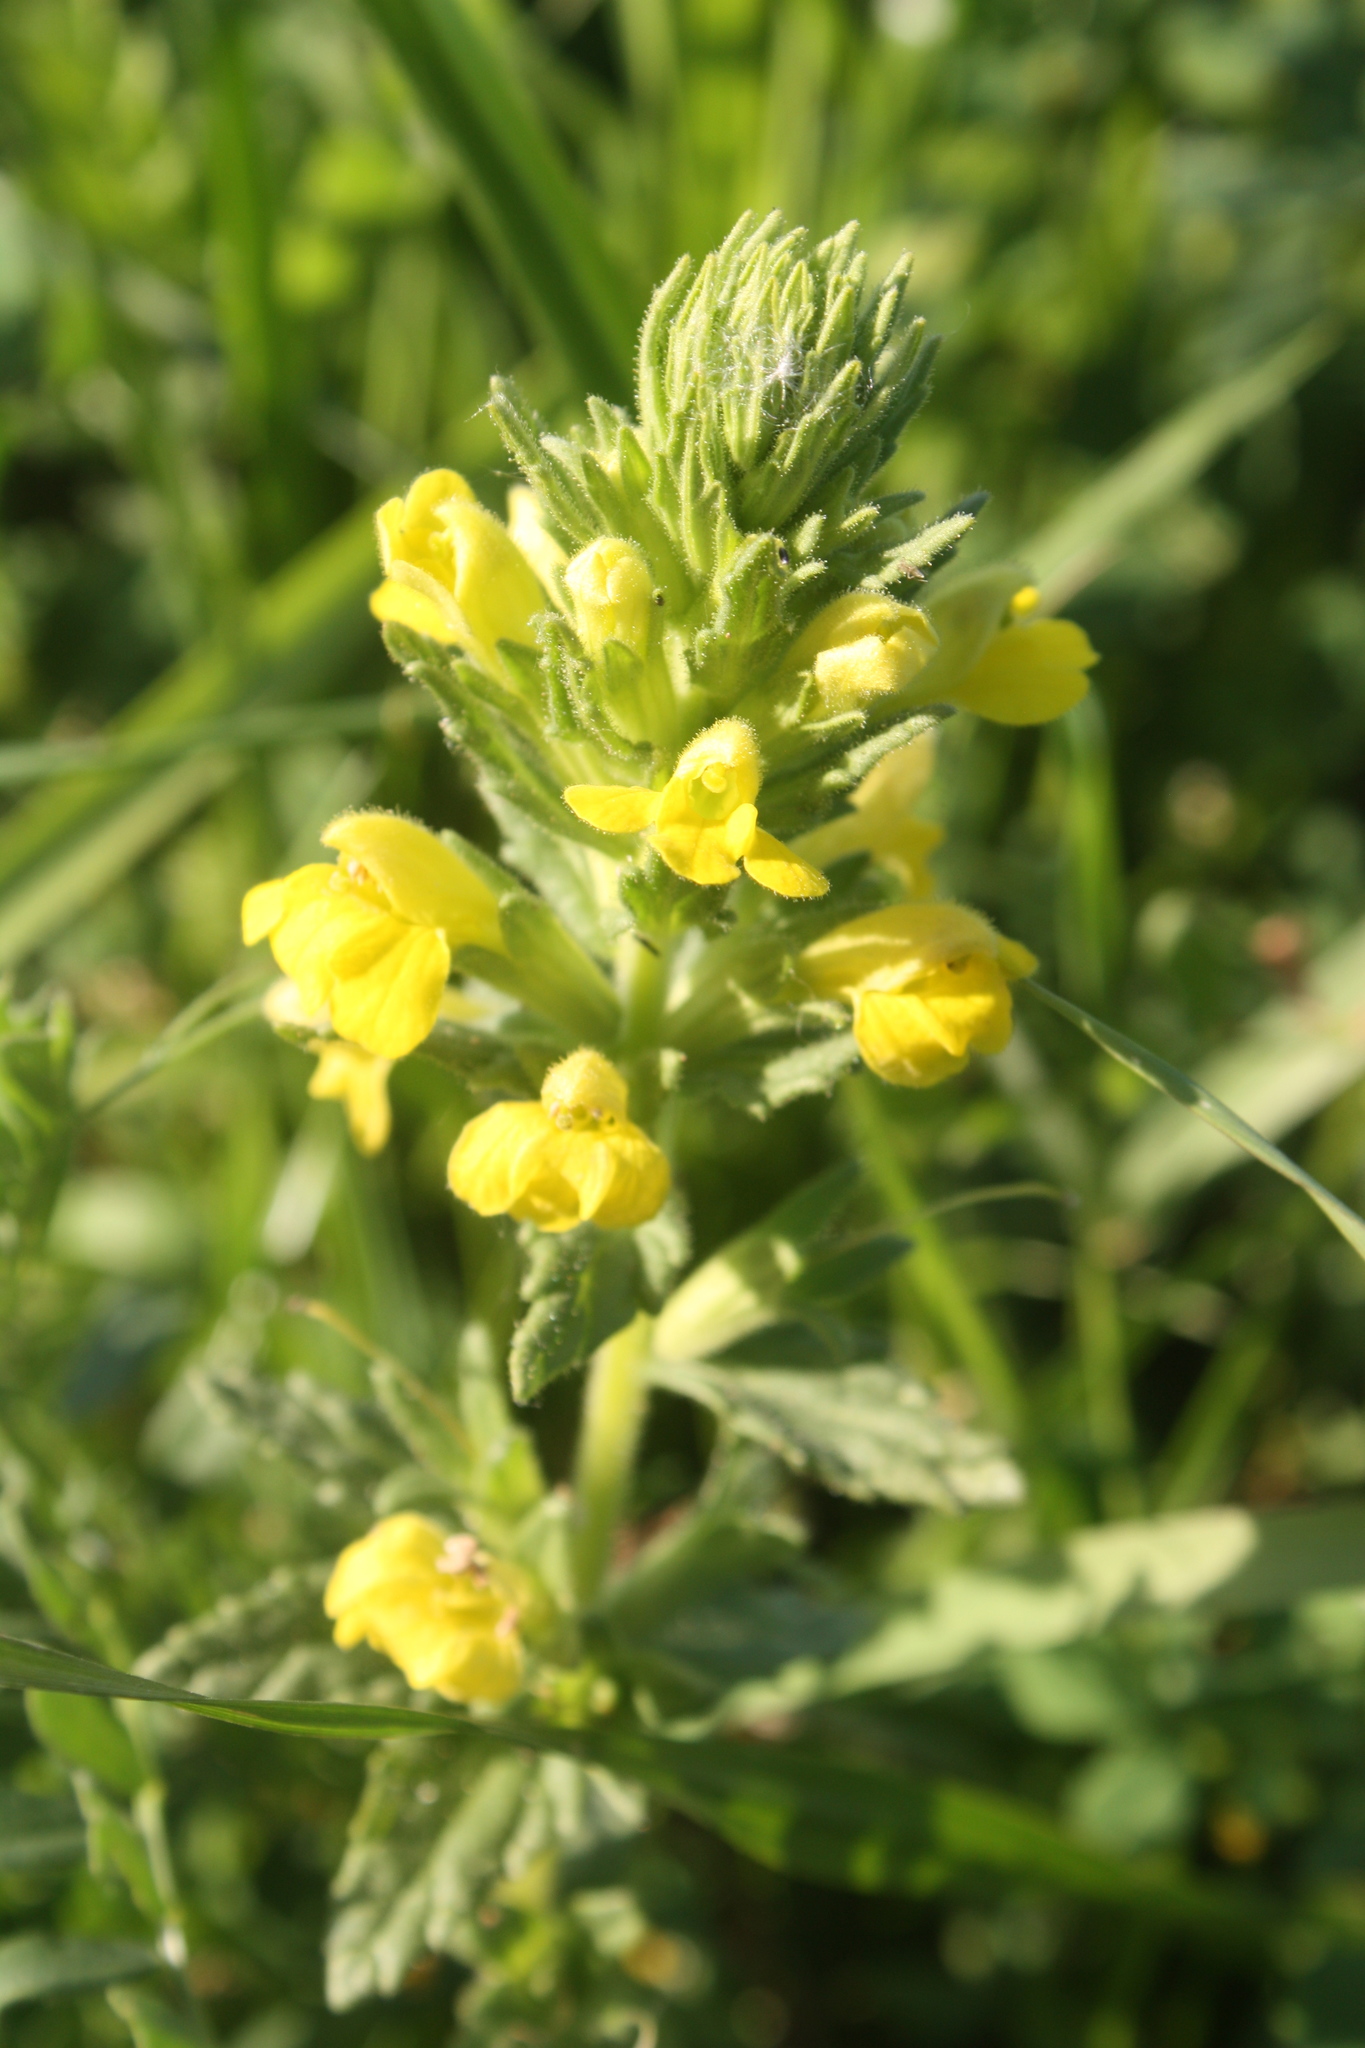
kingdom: Plantae
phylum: Tracheophyta
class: Magnoliopsida
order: Lamiales
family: Orobanchaceae
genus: Bellardia
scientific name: Bellardia viscosa
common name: Sticky parentucellia
